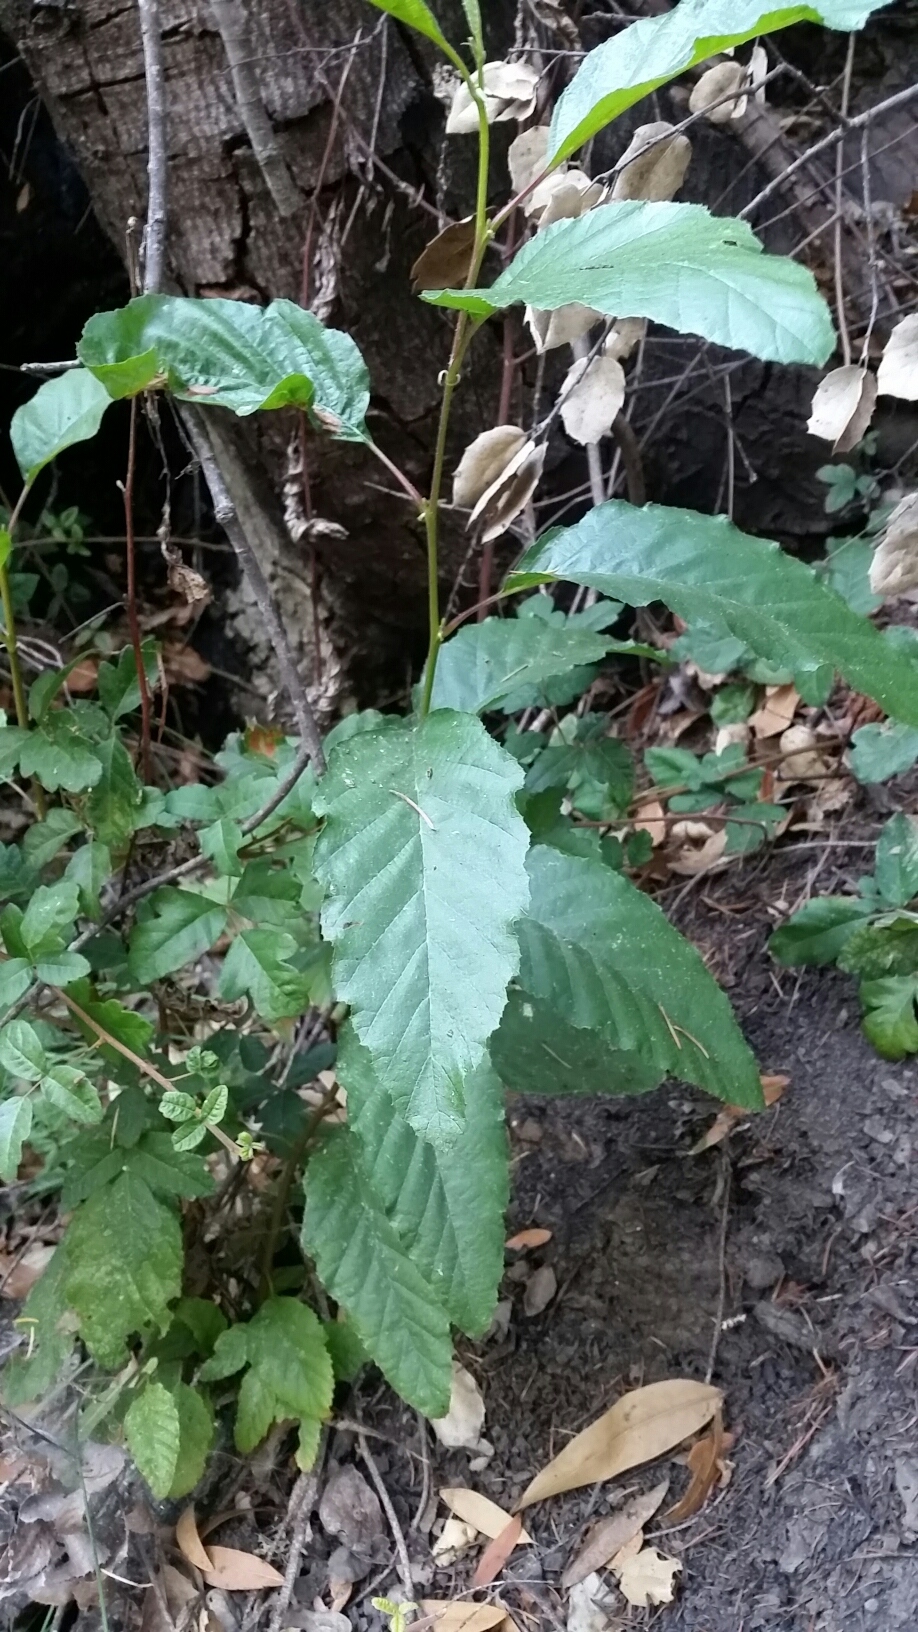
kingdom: Plantae
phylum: Tracheophyta
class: Magnoliopsida
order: Fagales
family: Betulaceae
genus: Alnus
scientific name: Alnus rhombifolia
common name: California alder
